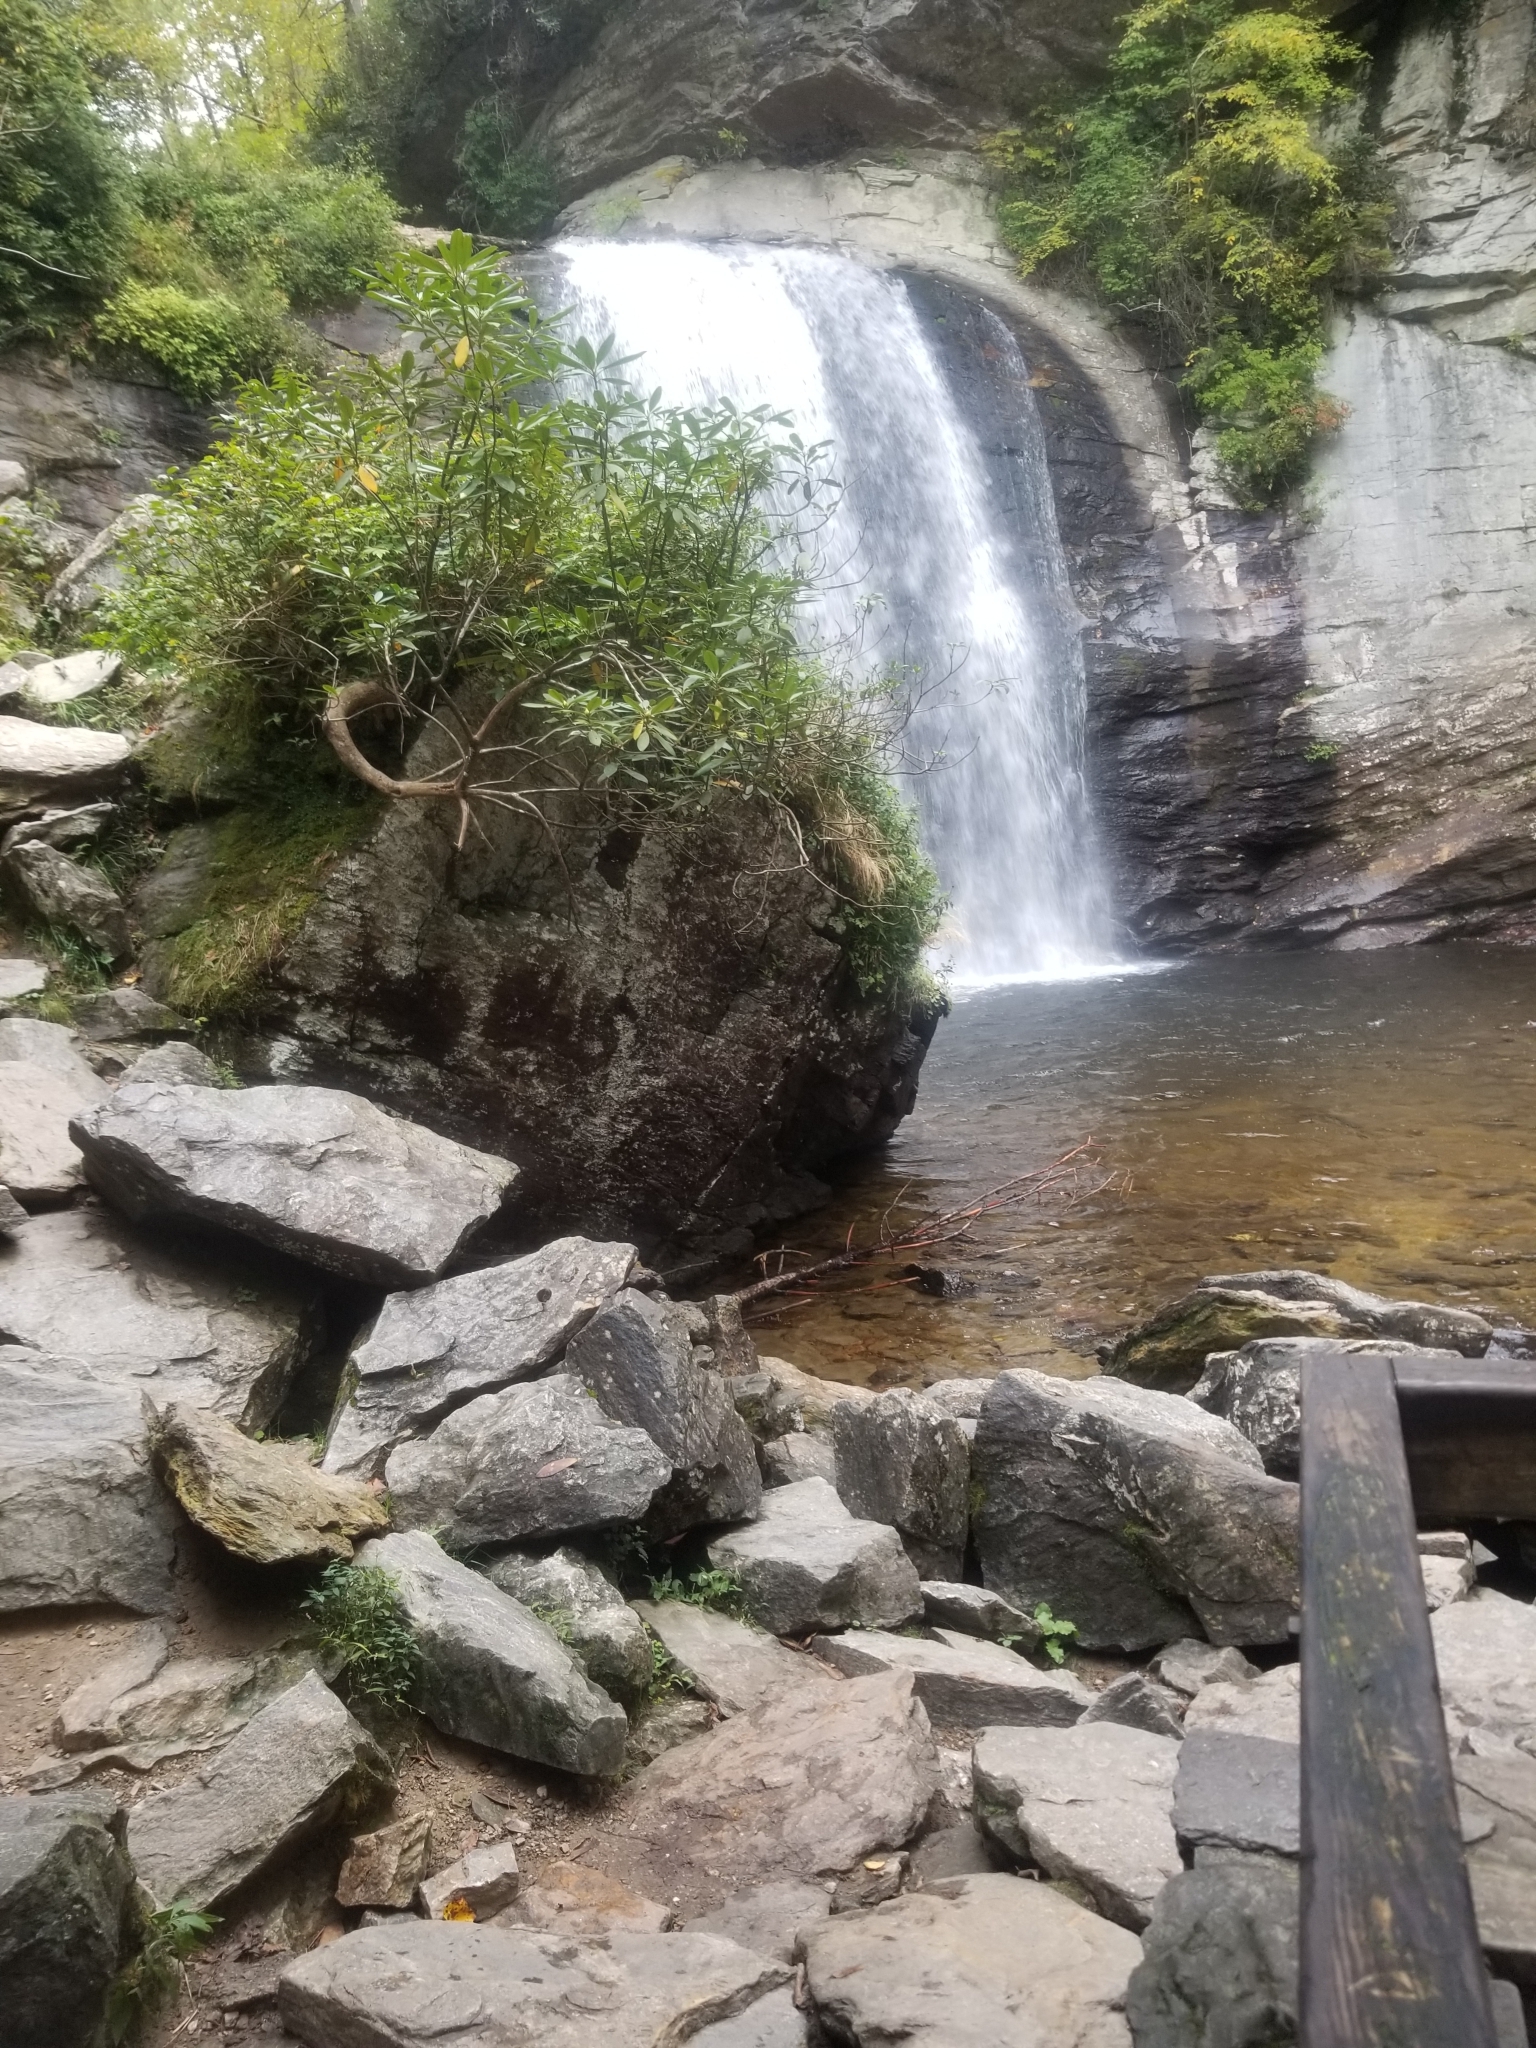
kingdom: Plantae
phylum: Tracheophyta
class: Magnoliopsida
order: Ericales
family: Ericaceae
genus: Rhododendron
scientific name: Rhododendron maximum
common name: Great rhododendron
